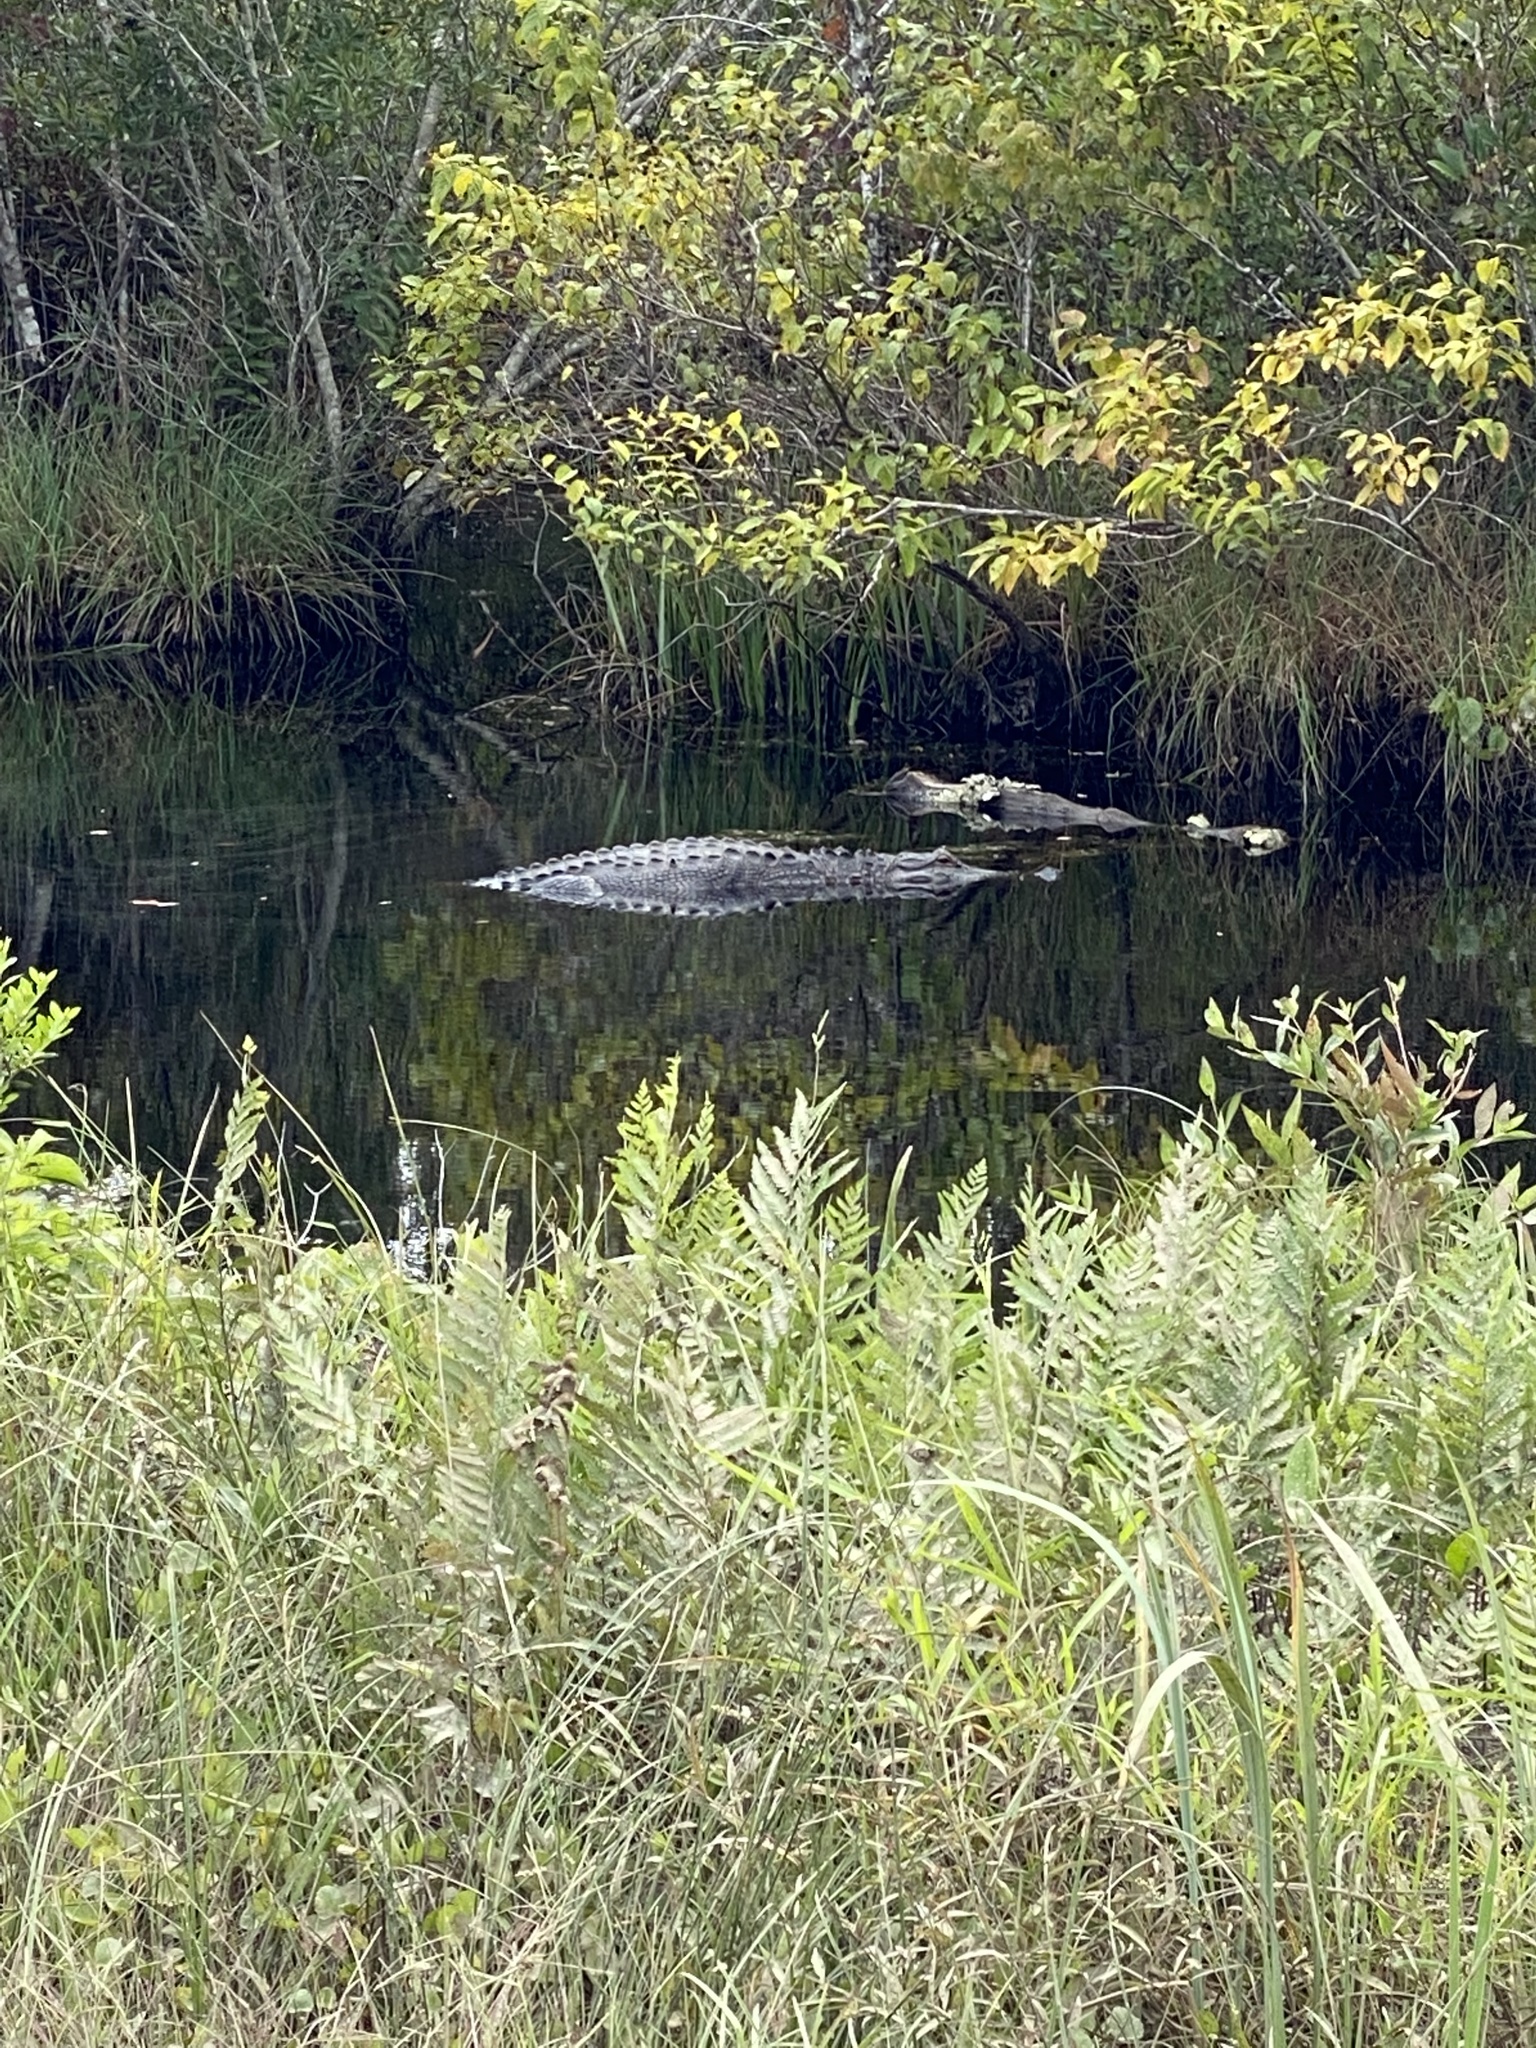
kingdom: Animalia
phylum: Chordata
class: Crocodylia
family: Alligatoridae
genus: Alligator
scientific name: Alligator mississippiensis
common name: American alligator
